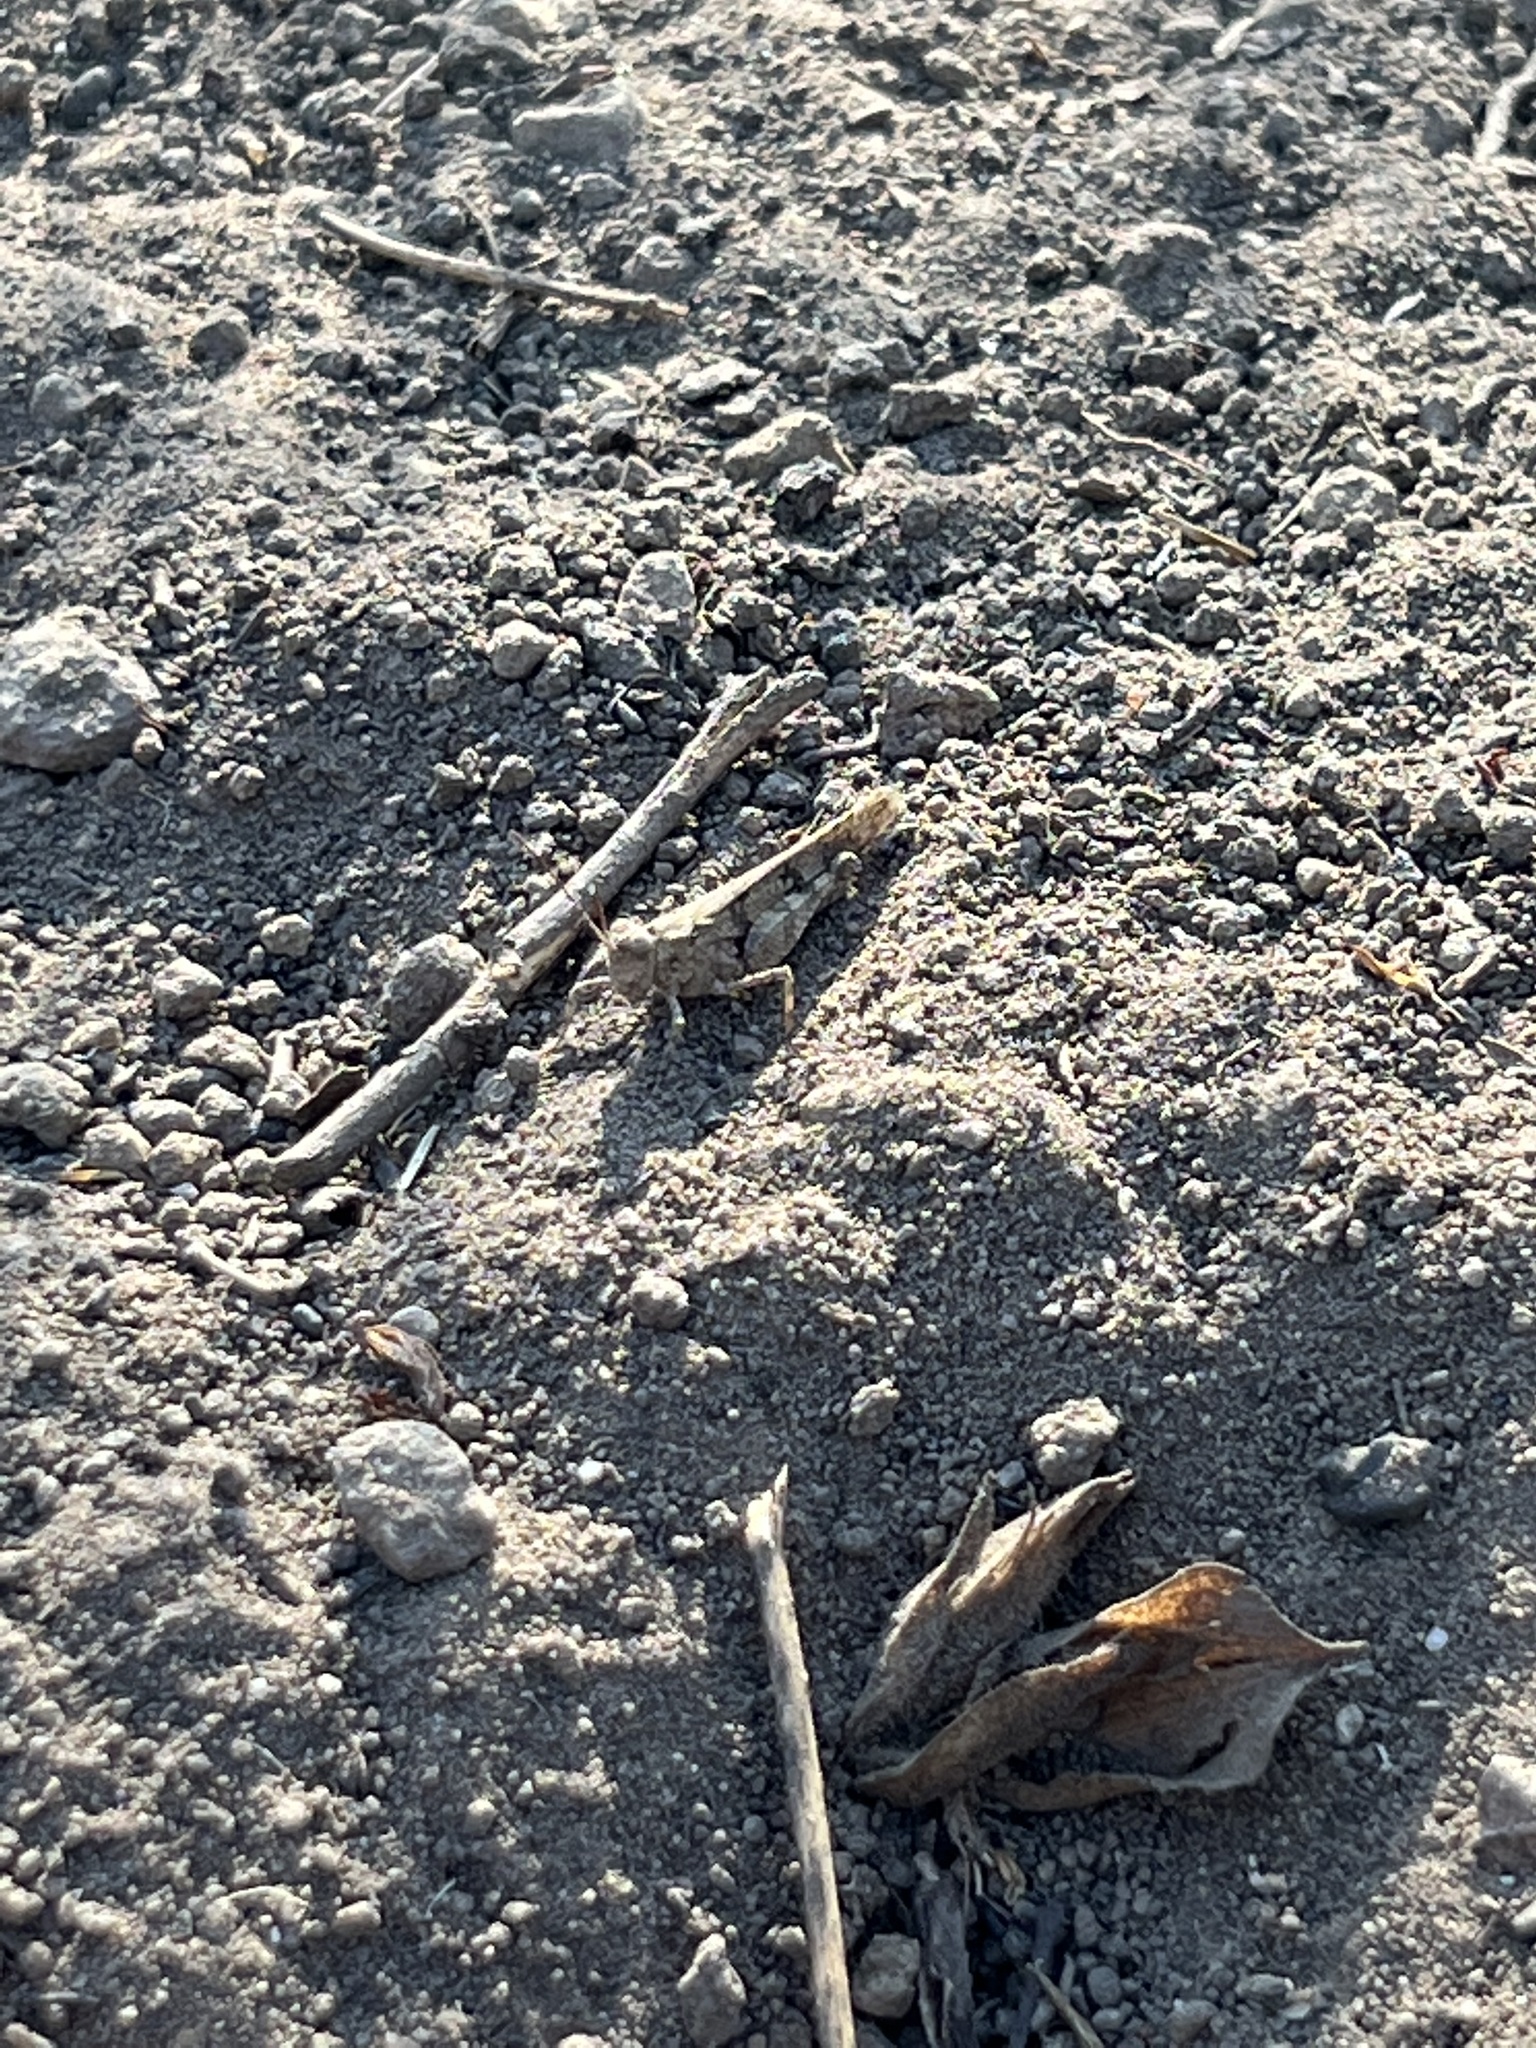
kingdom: Animalia
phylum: Arthropoda
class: Insecta
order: Orthoptera
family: Acrididae
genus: Trimerotropis
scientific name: Trimerotropis occidentaloides
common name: Santa monica mountains grasshopper
